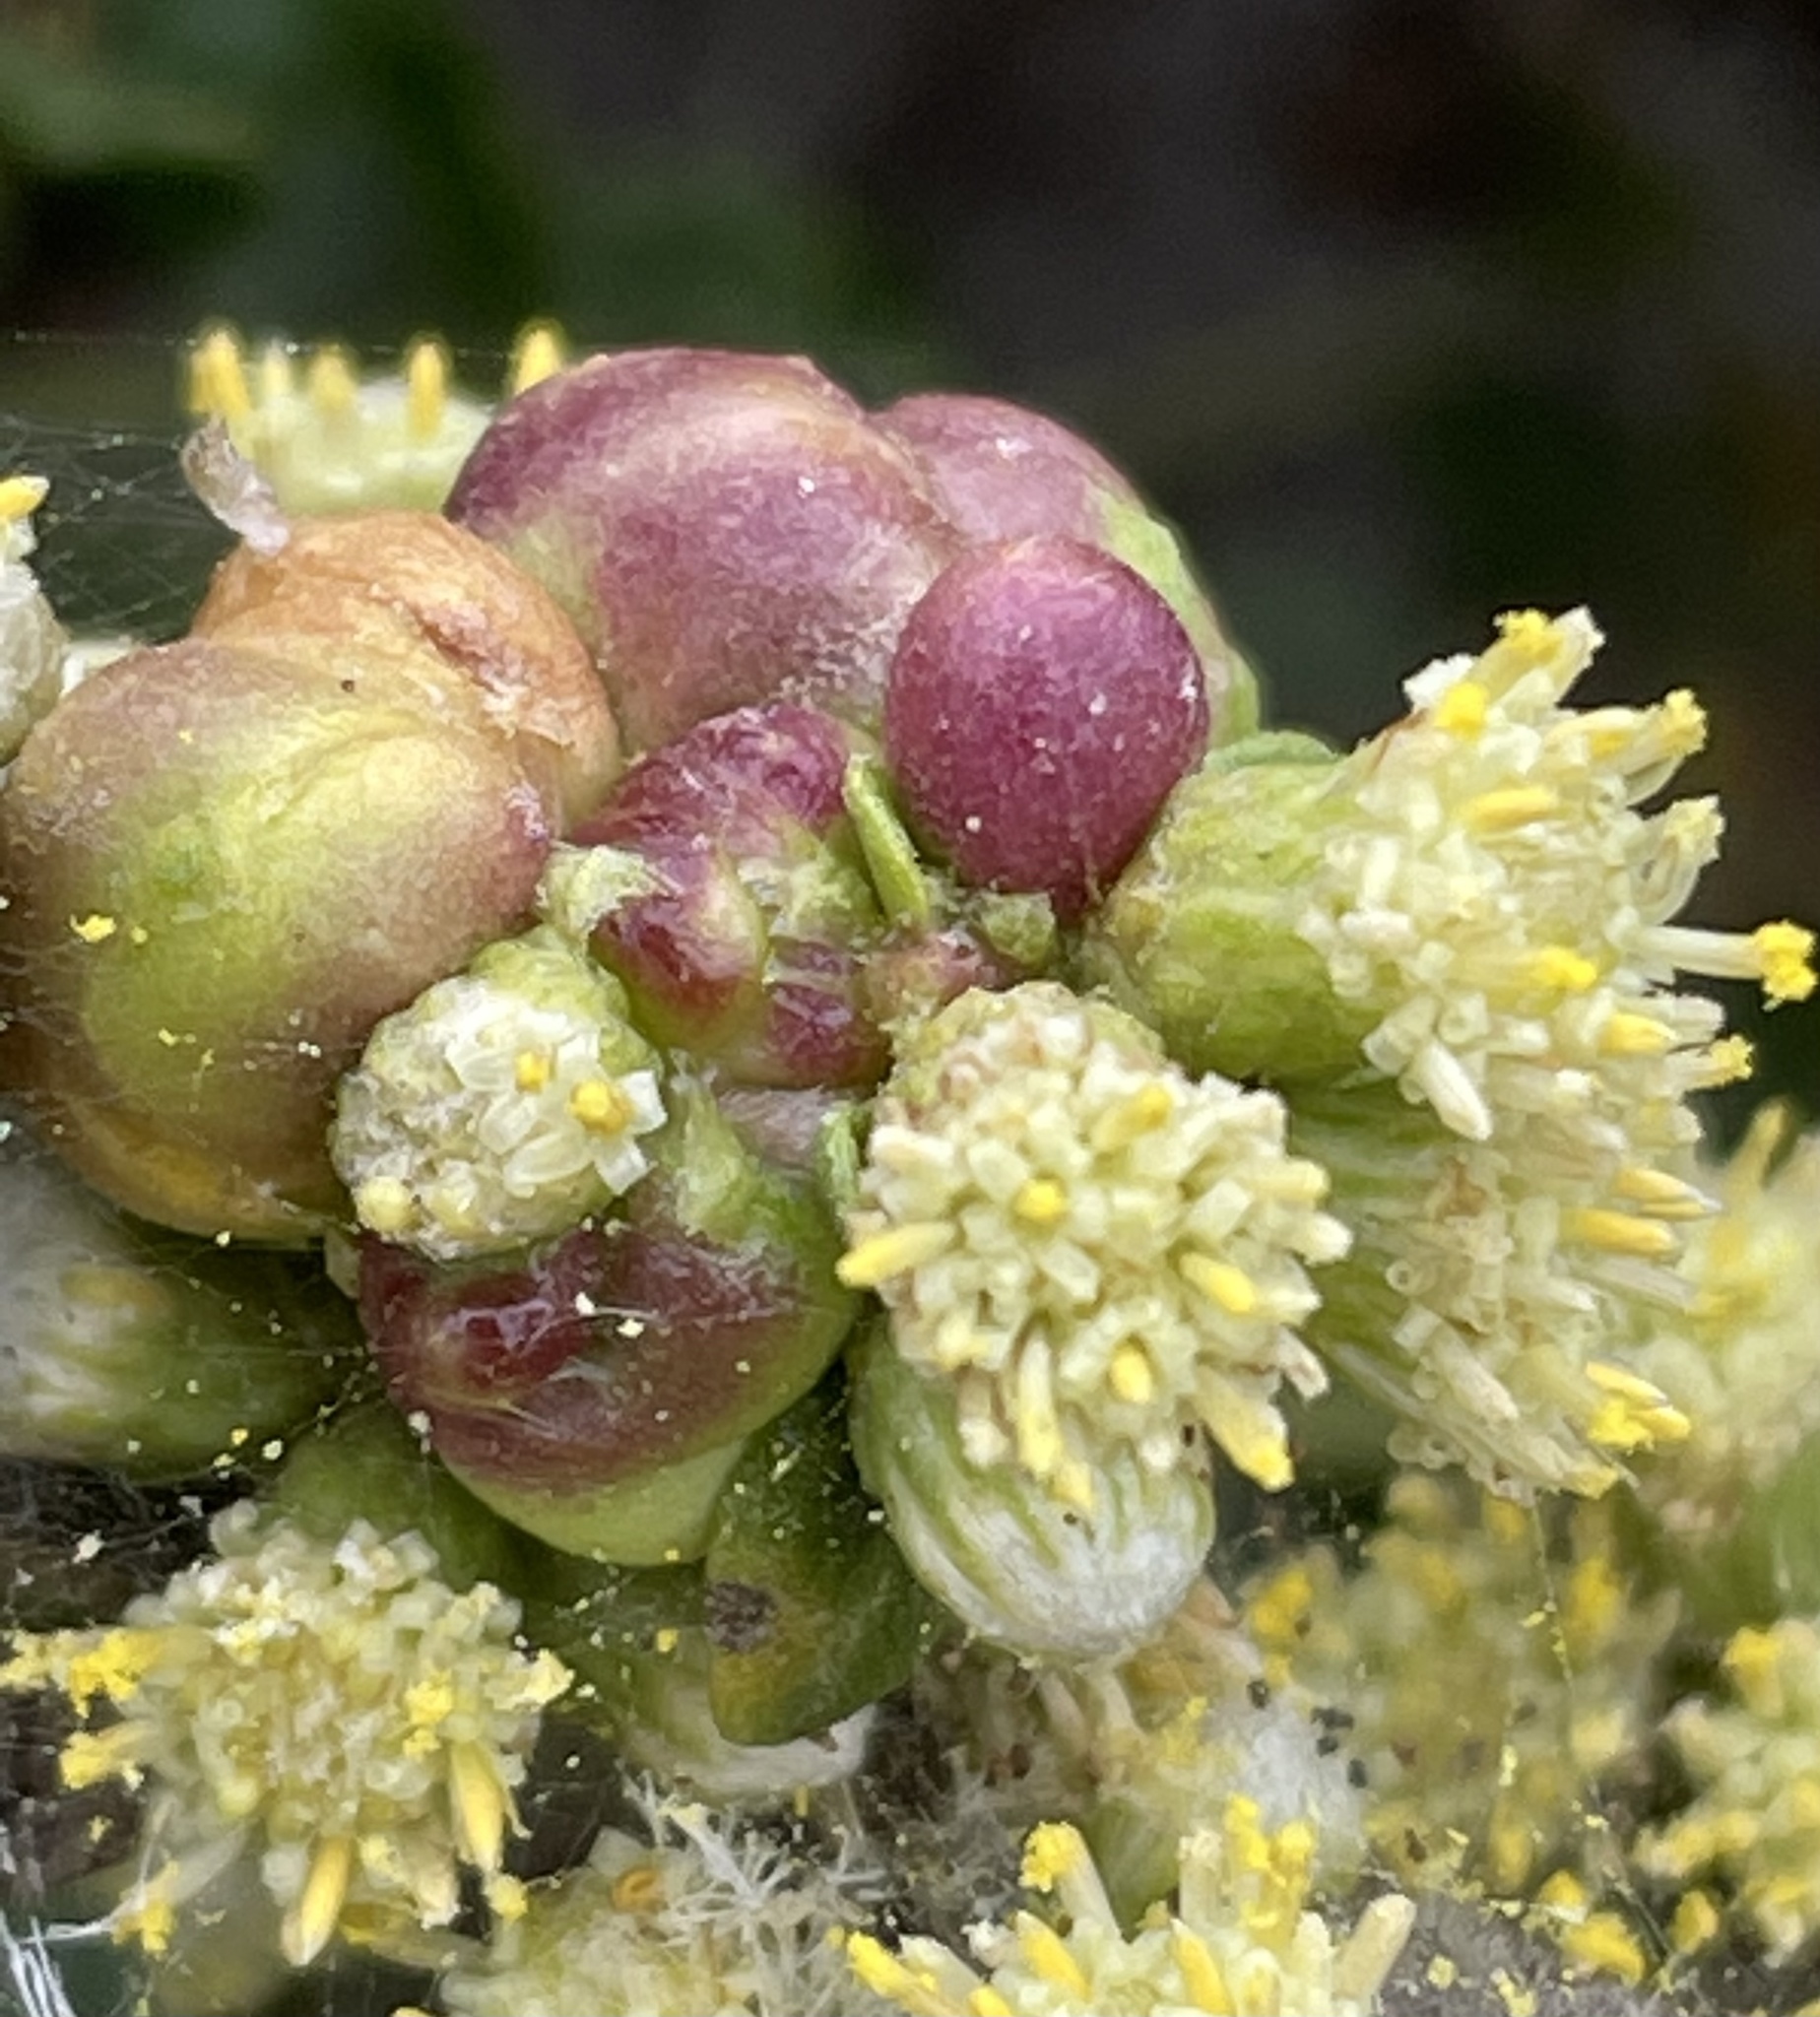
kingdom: Animalia
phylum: Arthropoda
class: Insecta
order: Diptera
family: Cecidomyiidae
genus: Rhopalomyia
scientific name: Rhopalomyia californica
